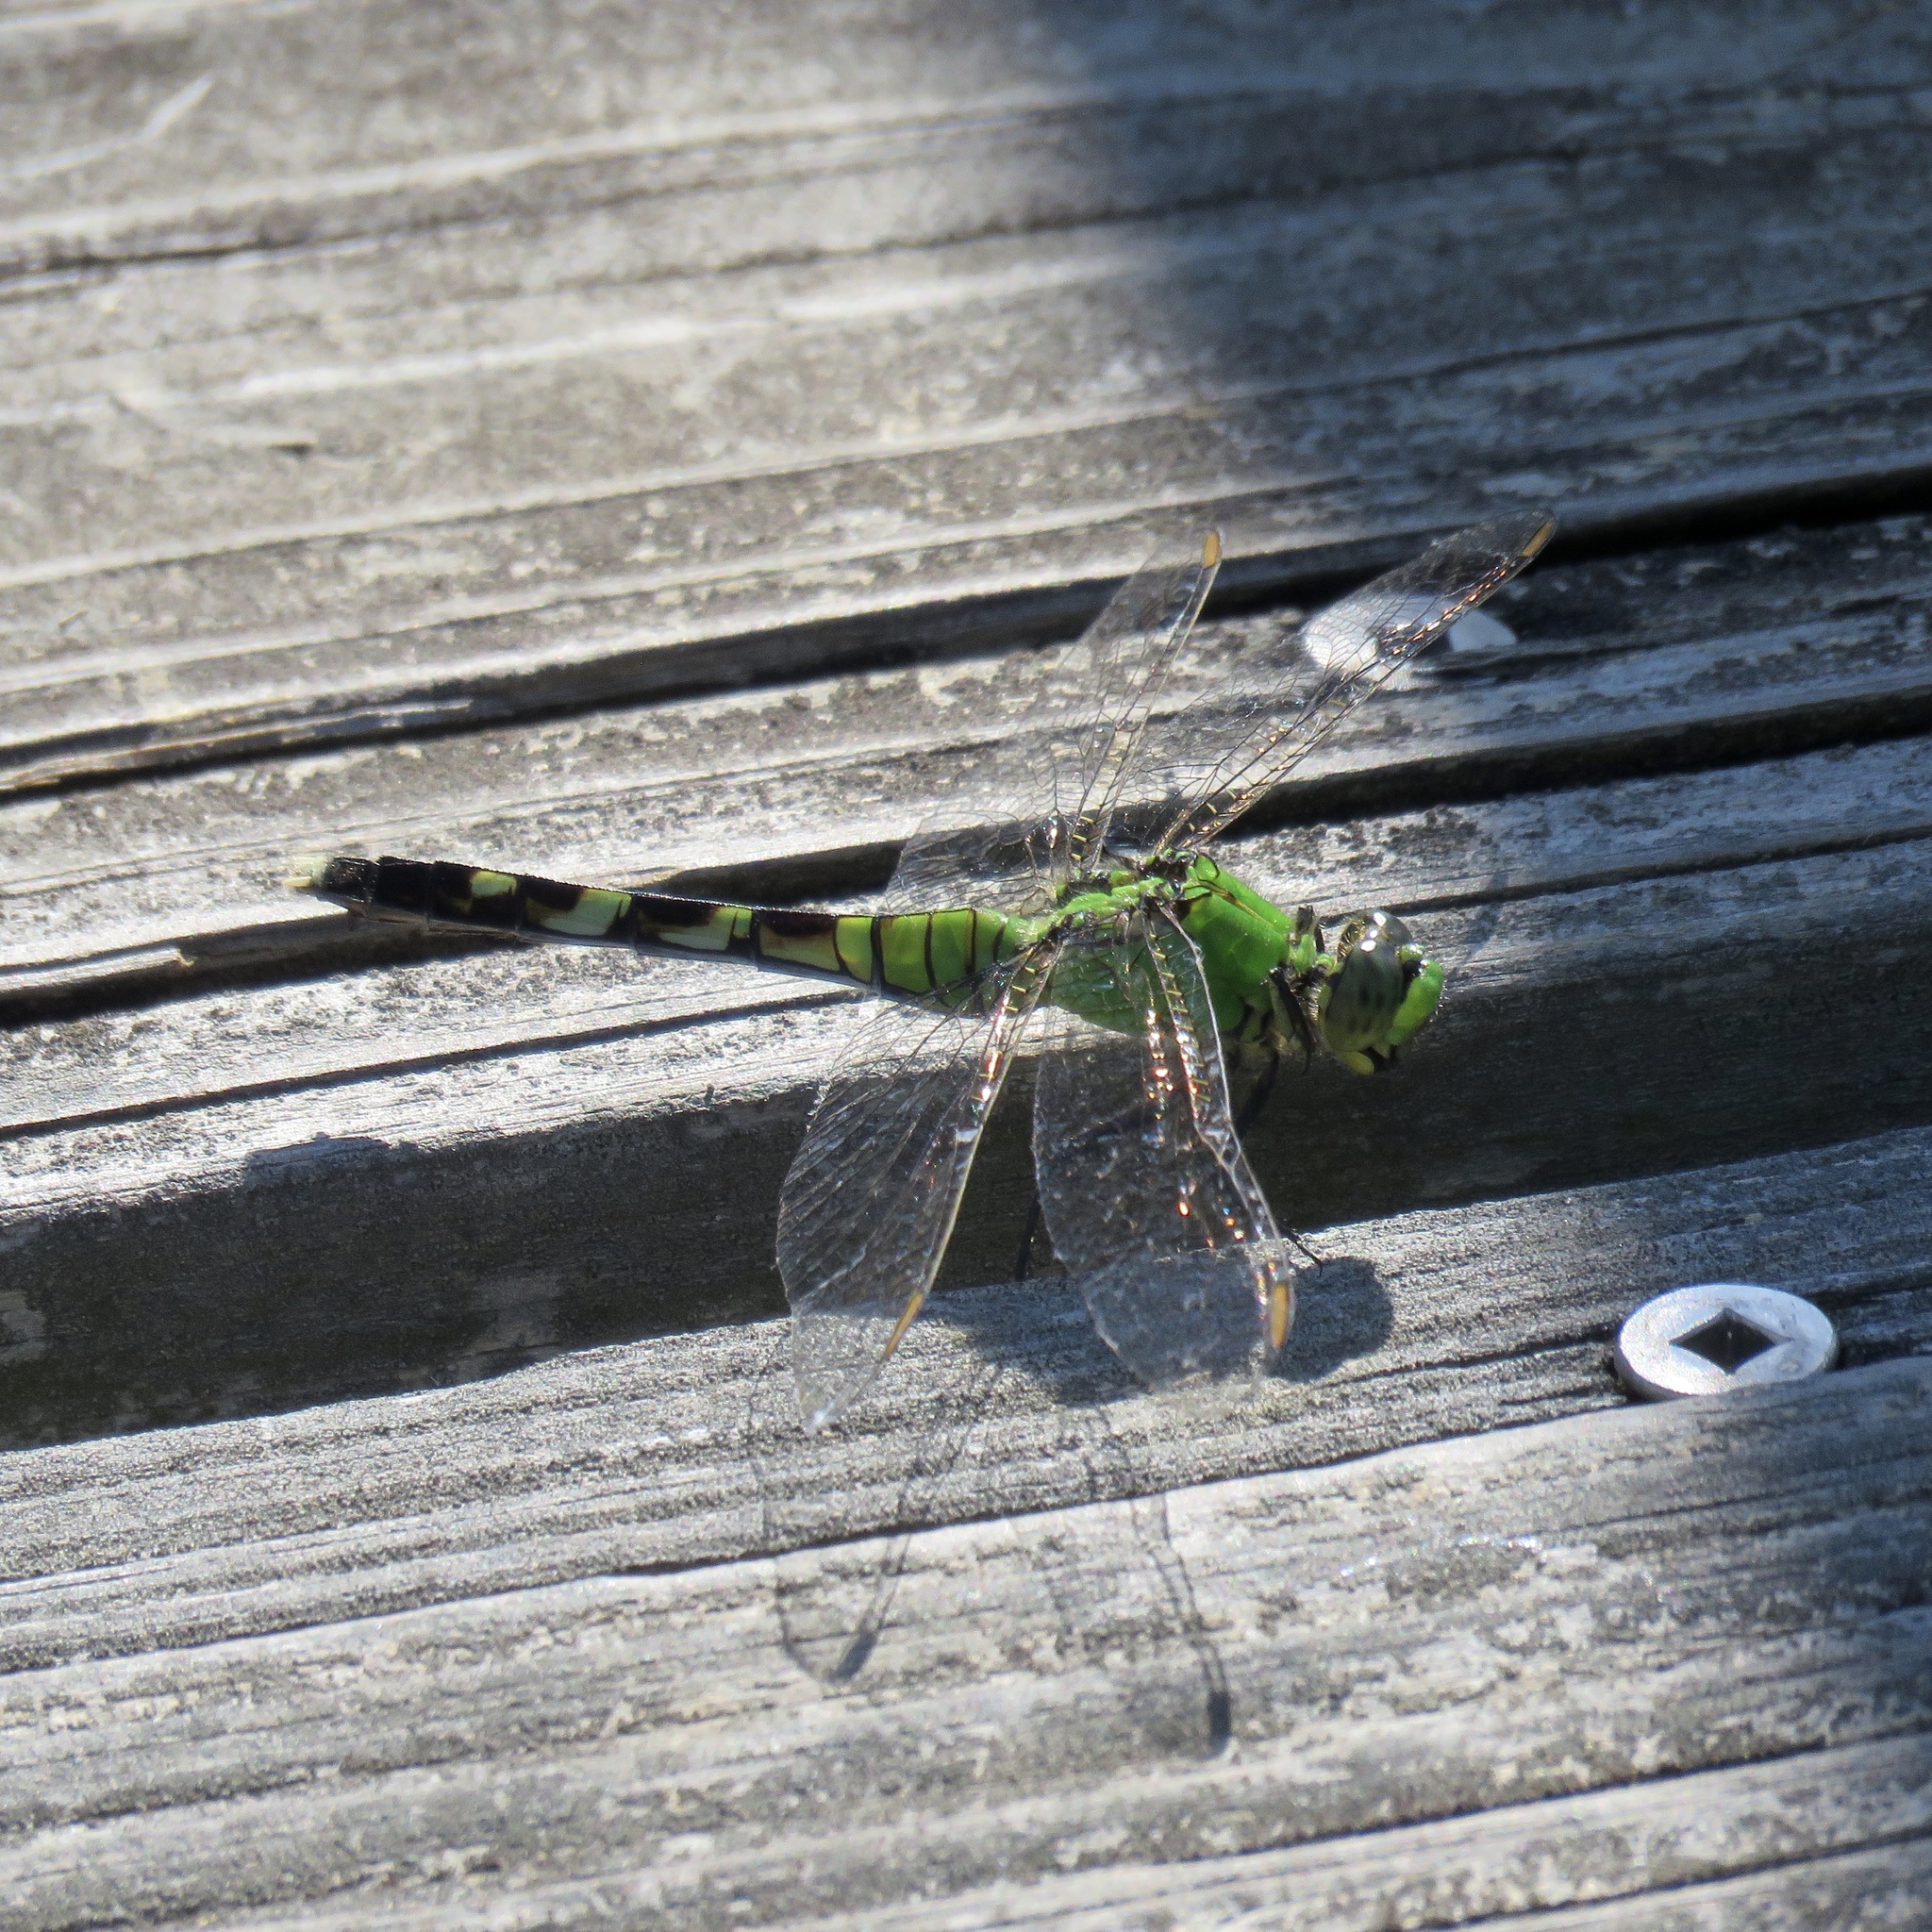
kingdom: Animalia
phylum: Arthropoda
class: Insecta
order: Odonata
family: Libellulidae
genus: Erythemis
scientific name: Erythemis simplicicollis
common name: Eastern pondhawk
